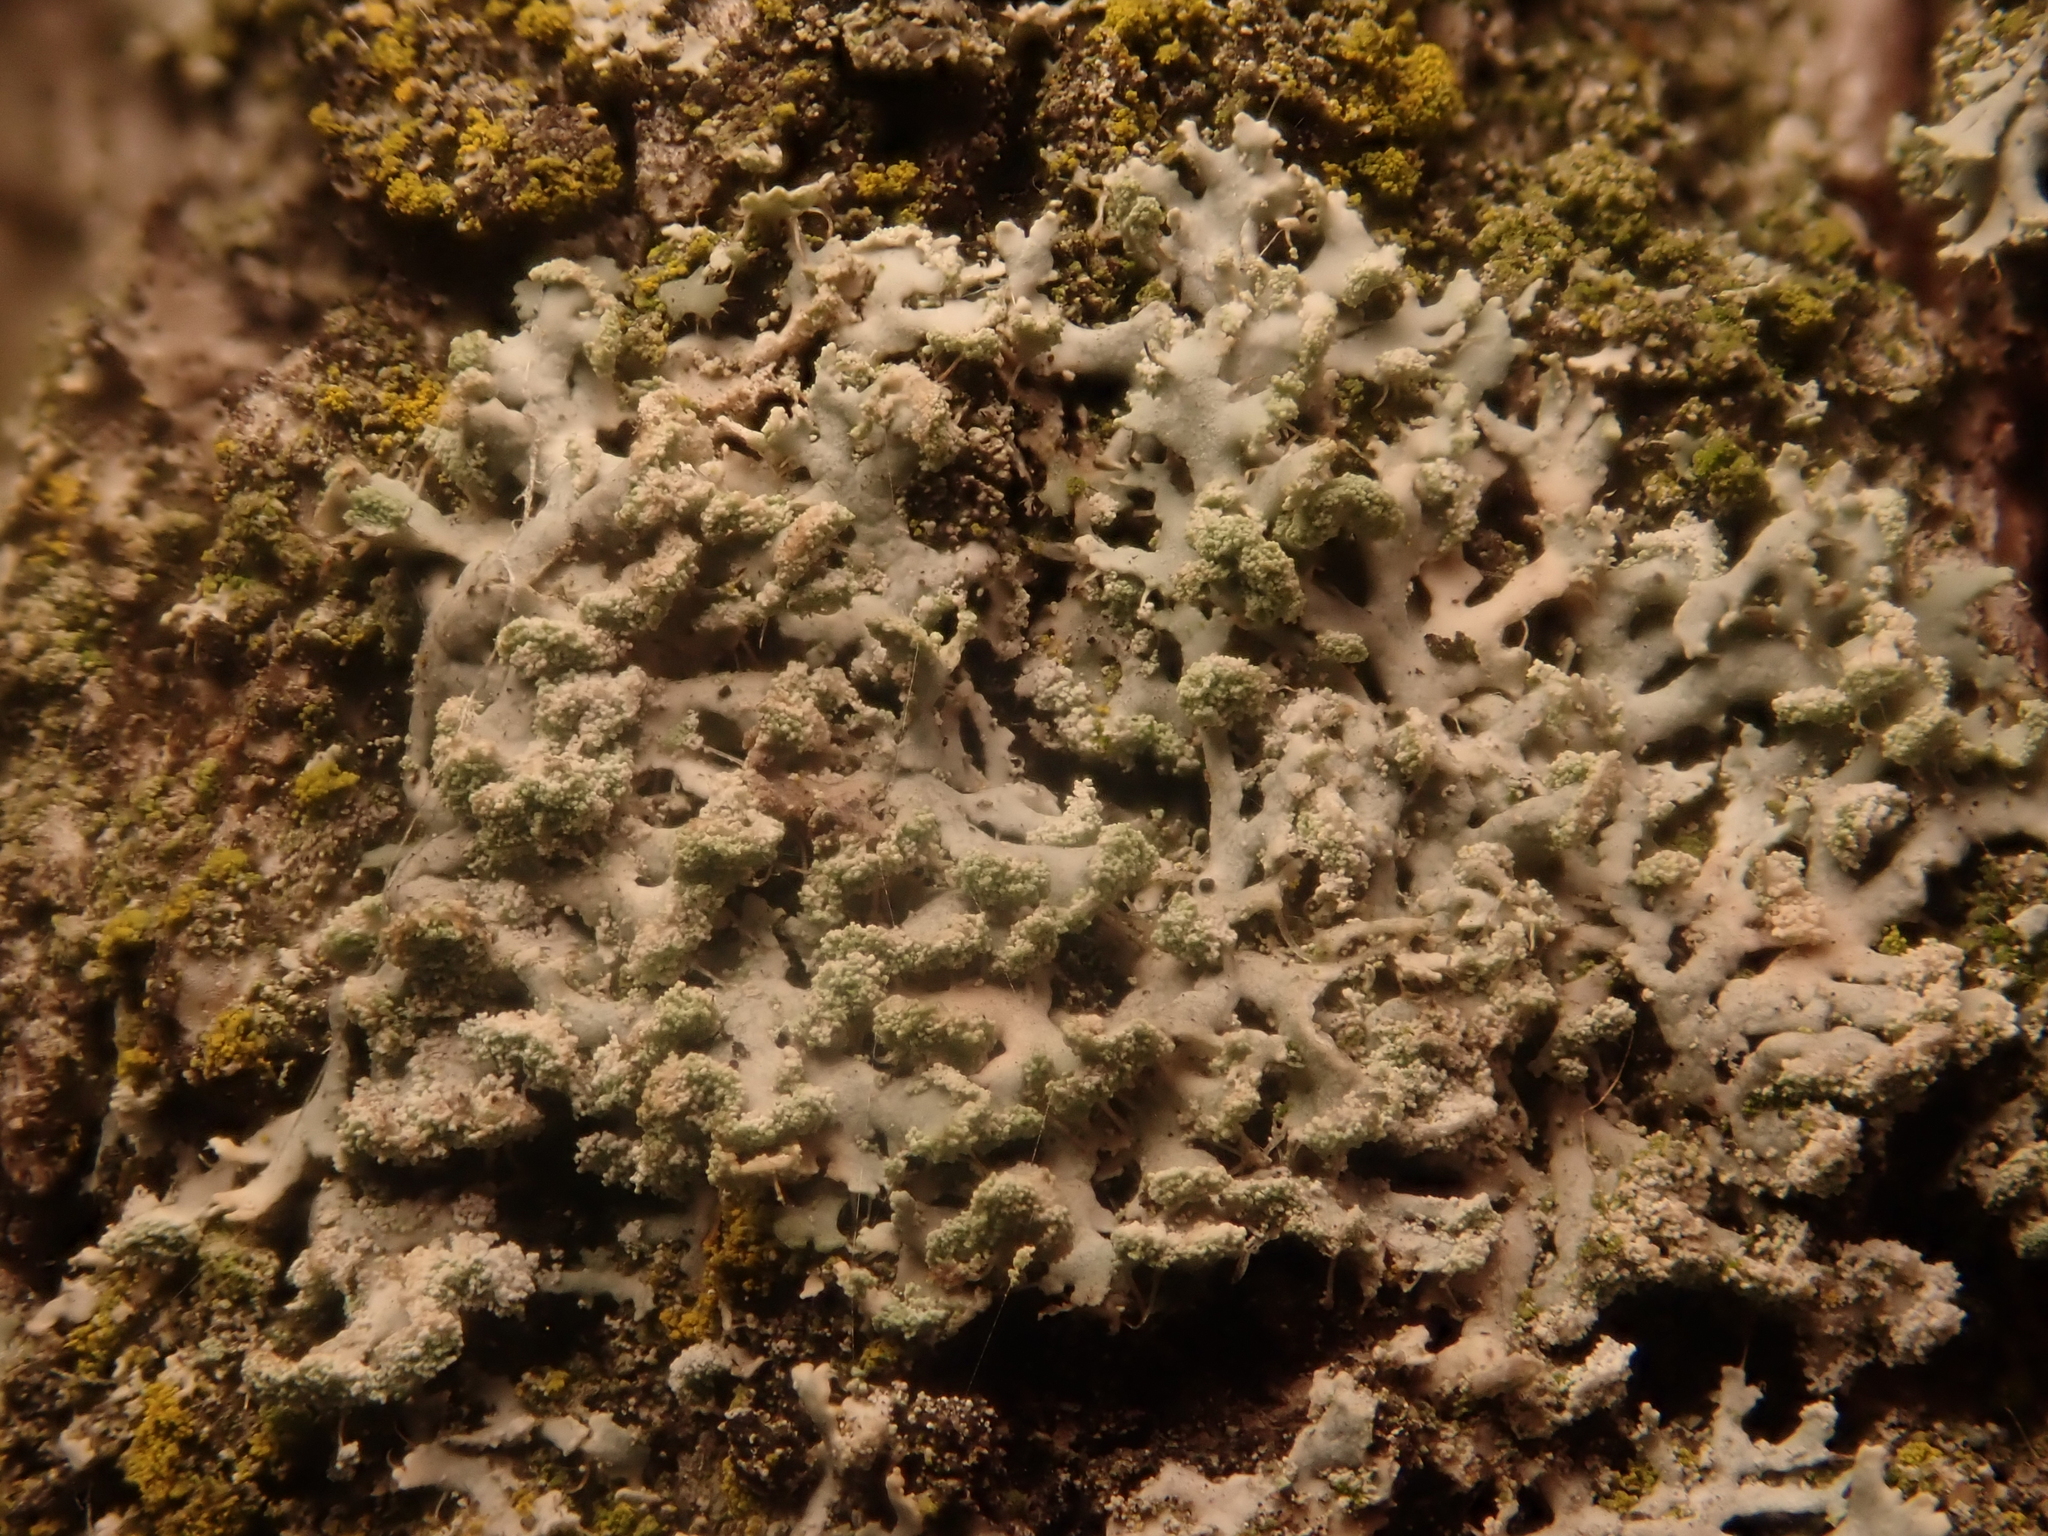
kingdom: Fungi
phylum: Ascomycota
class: Lecanoromycetes
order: Caliciales
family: Physciaceae
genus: Physcia
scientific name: Physcia tenella
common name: Fringed rosette lichen
